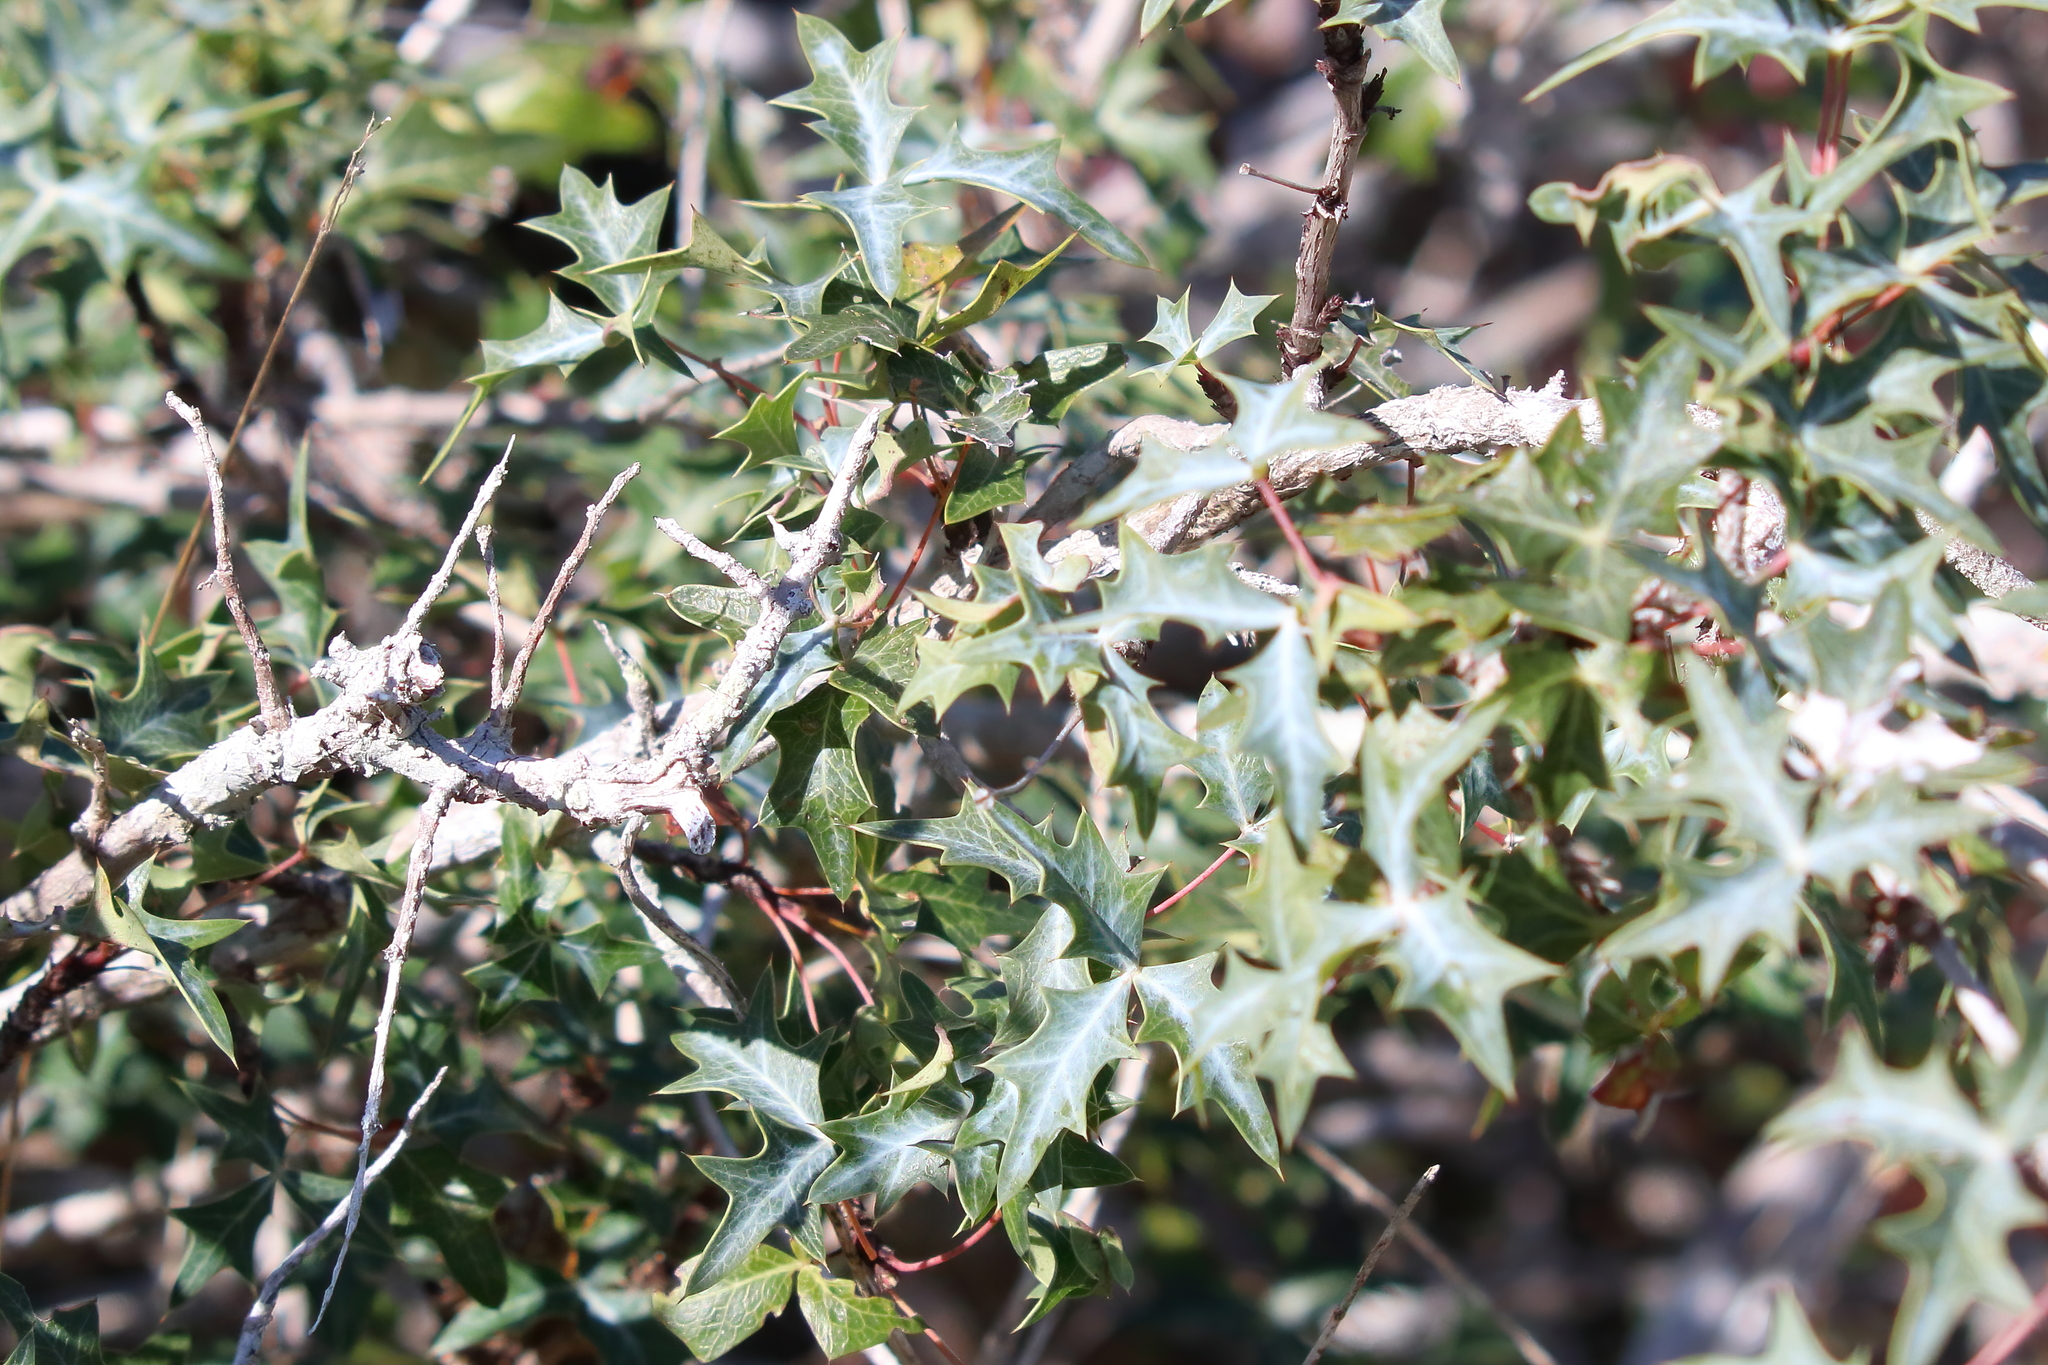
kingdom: Plantae
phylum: Tracheophyta
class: Magnoliopsida
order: Ranunculales
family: Berberidaceae
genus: Alloberberis
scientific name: Alloberberis trifoliolata
